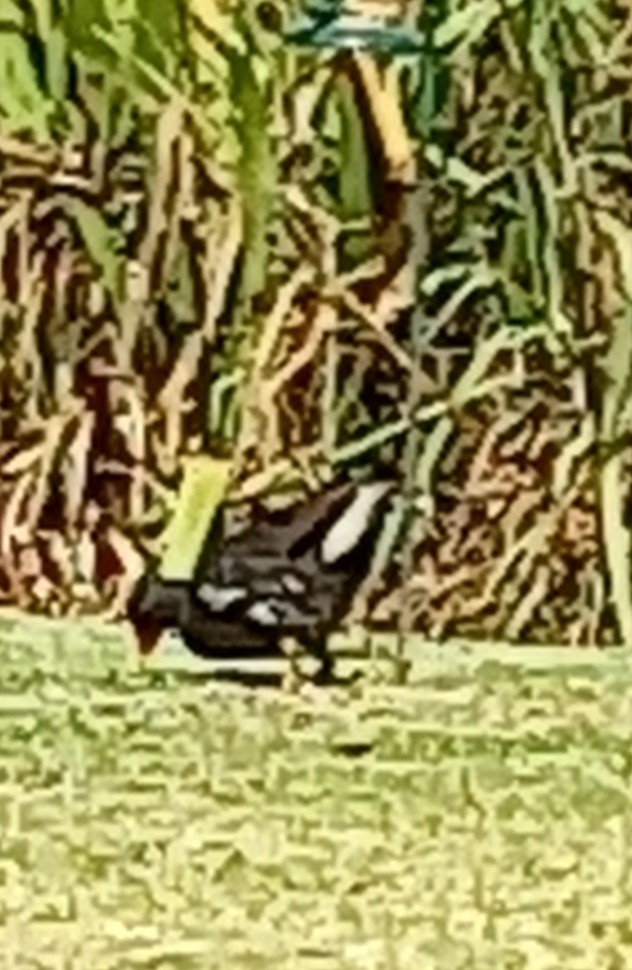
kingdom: Animalia
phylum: Chordata
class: Aves
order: Gruiformes
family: Rallidae
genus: Gallinula
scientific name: Gallinula chloropus
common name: Common moorhen
